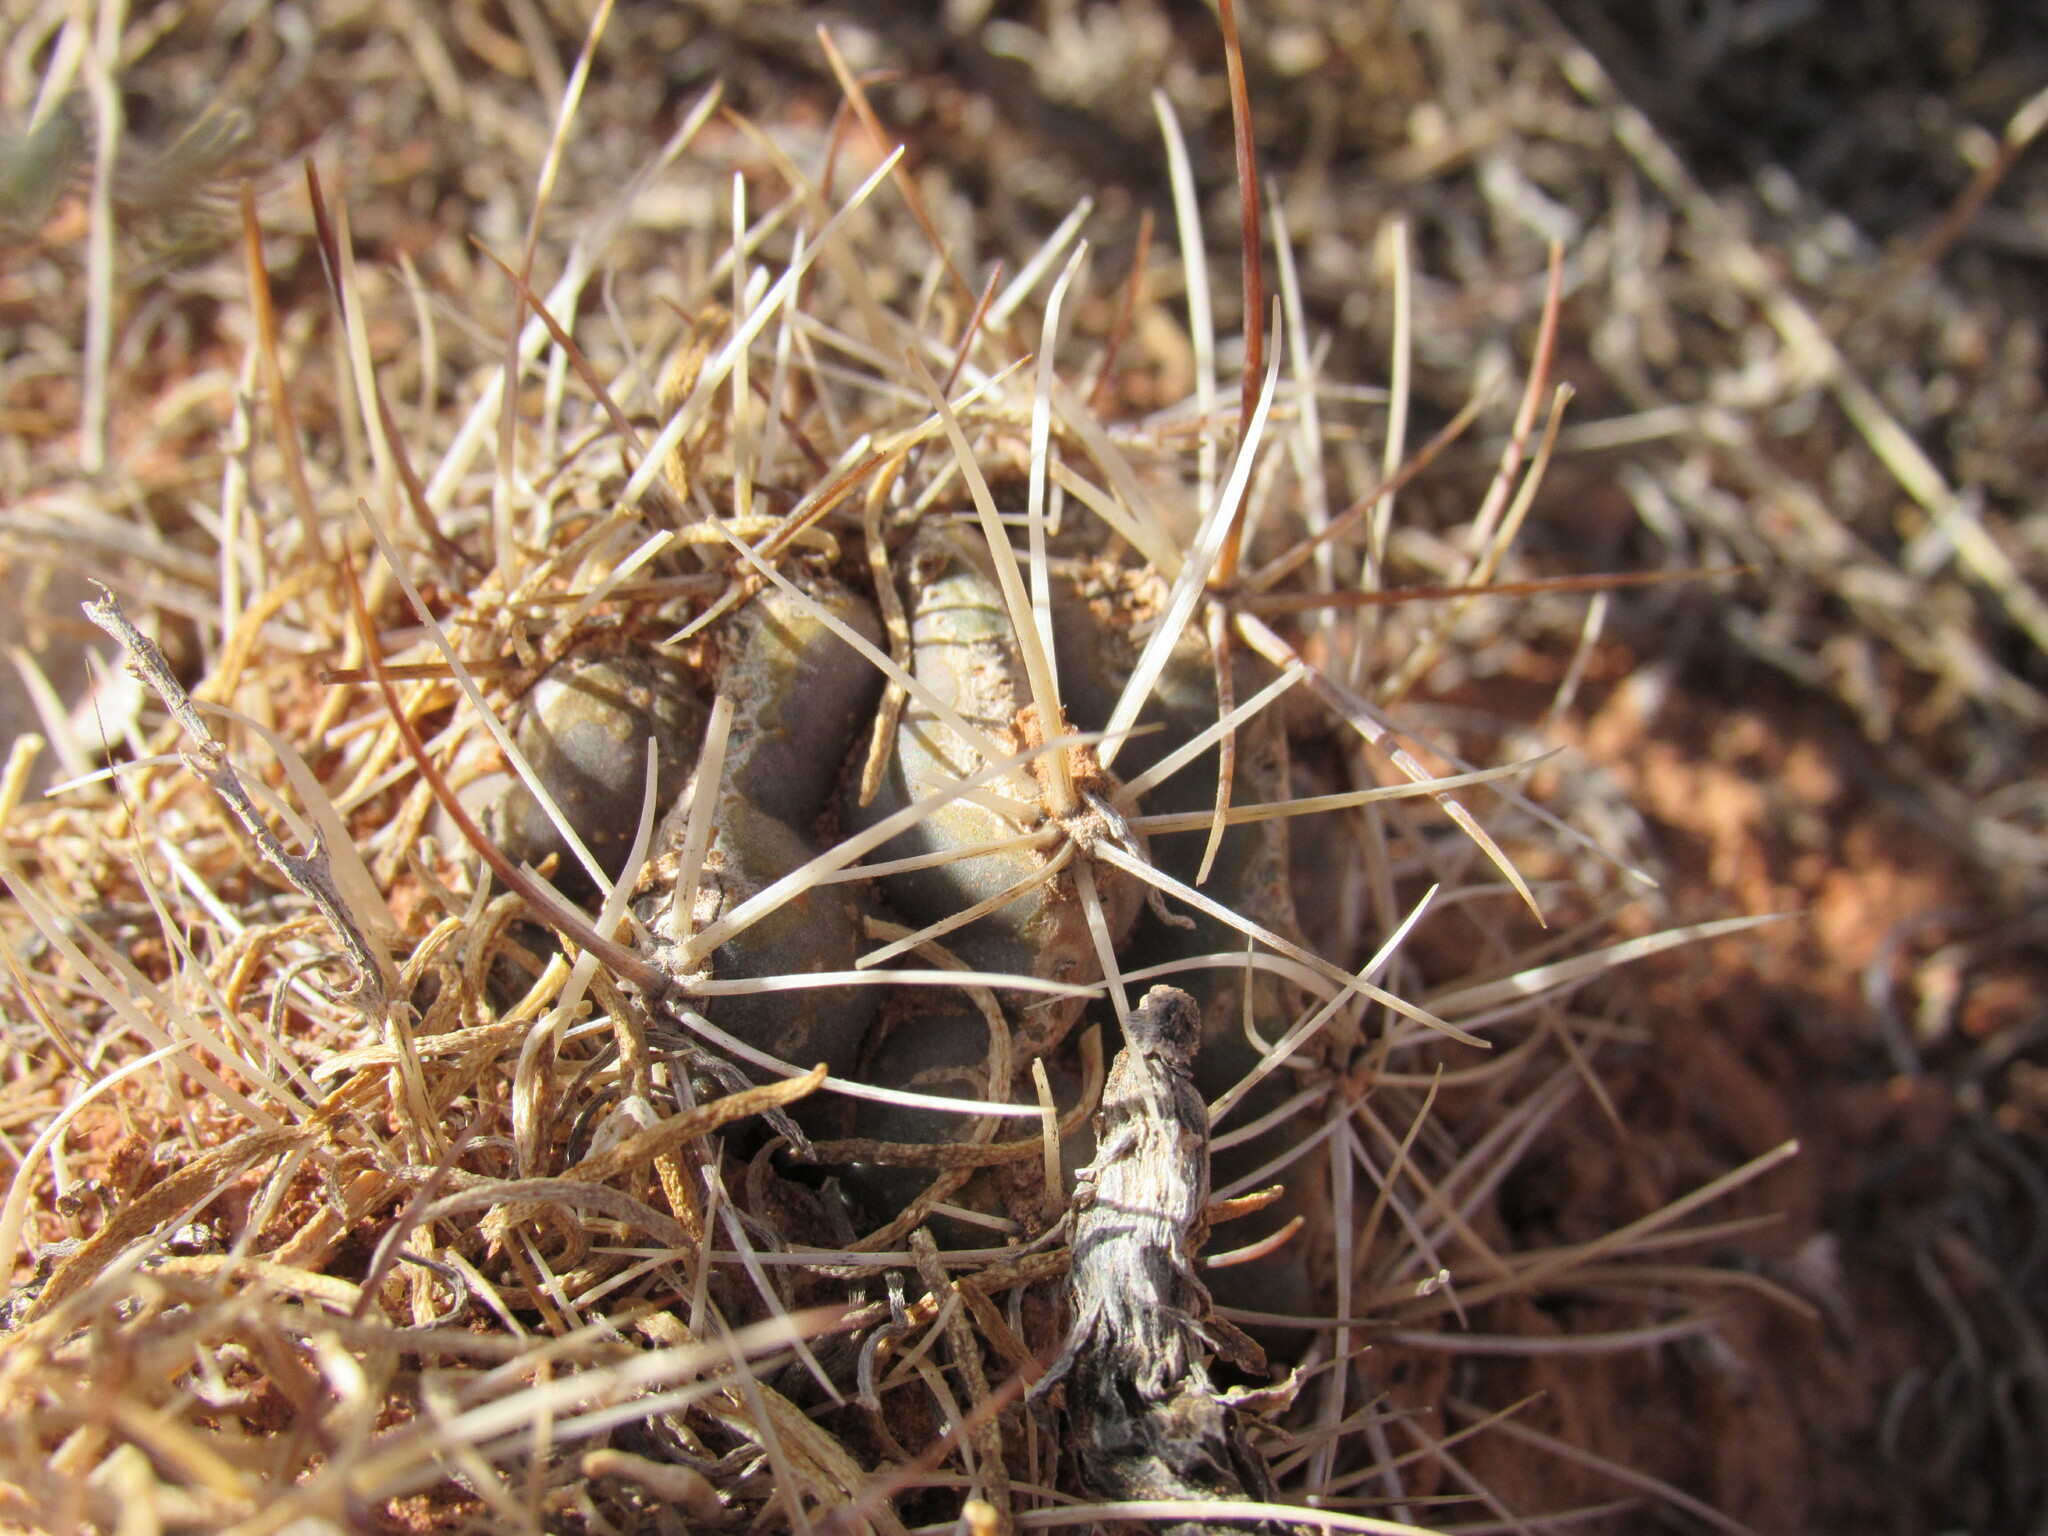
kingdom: Plantae
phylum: Tracheophyta
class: Magnoliopsida
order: Caryophyllales
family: Cactaceae
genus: Sclerocactus
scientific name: Sclerocactus glaucus
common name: Colorado hookless cactus
